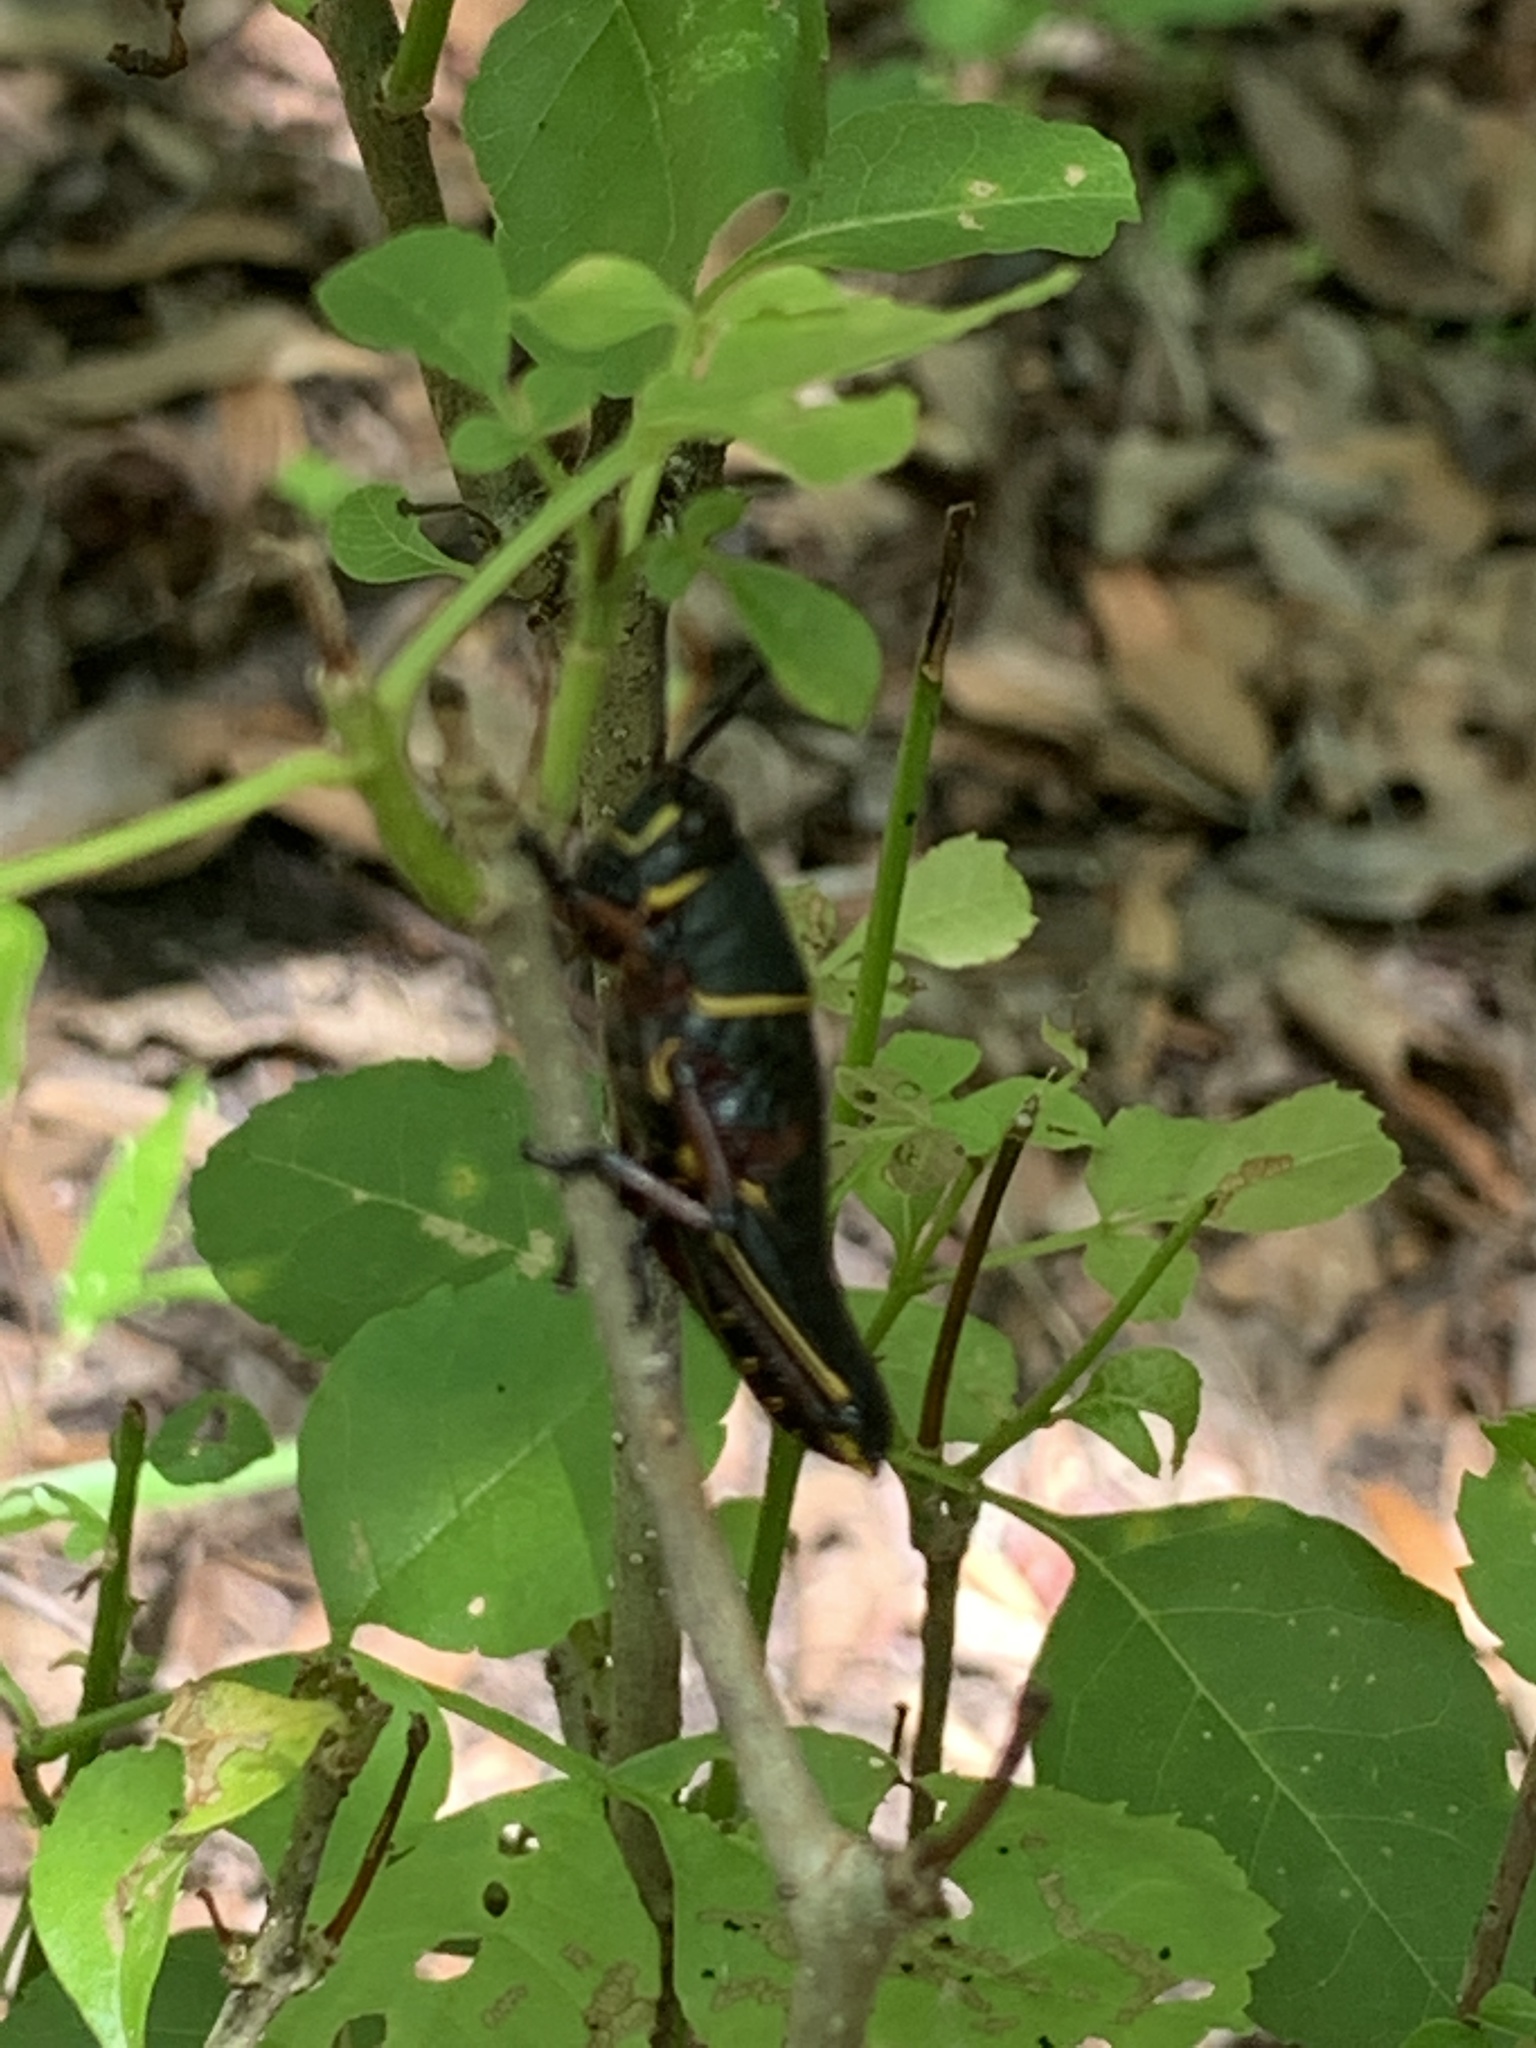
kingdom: Animalia
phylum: Arthropoda
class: Insecta
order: Orthoptera
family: Romaleidae
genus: Romalea
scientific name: Romalea microptera
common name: Eastern lubber grasshopper
